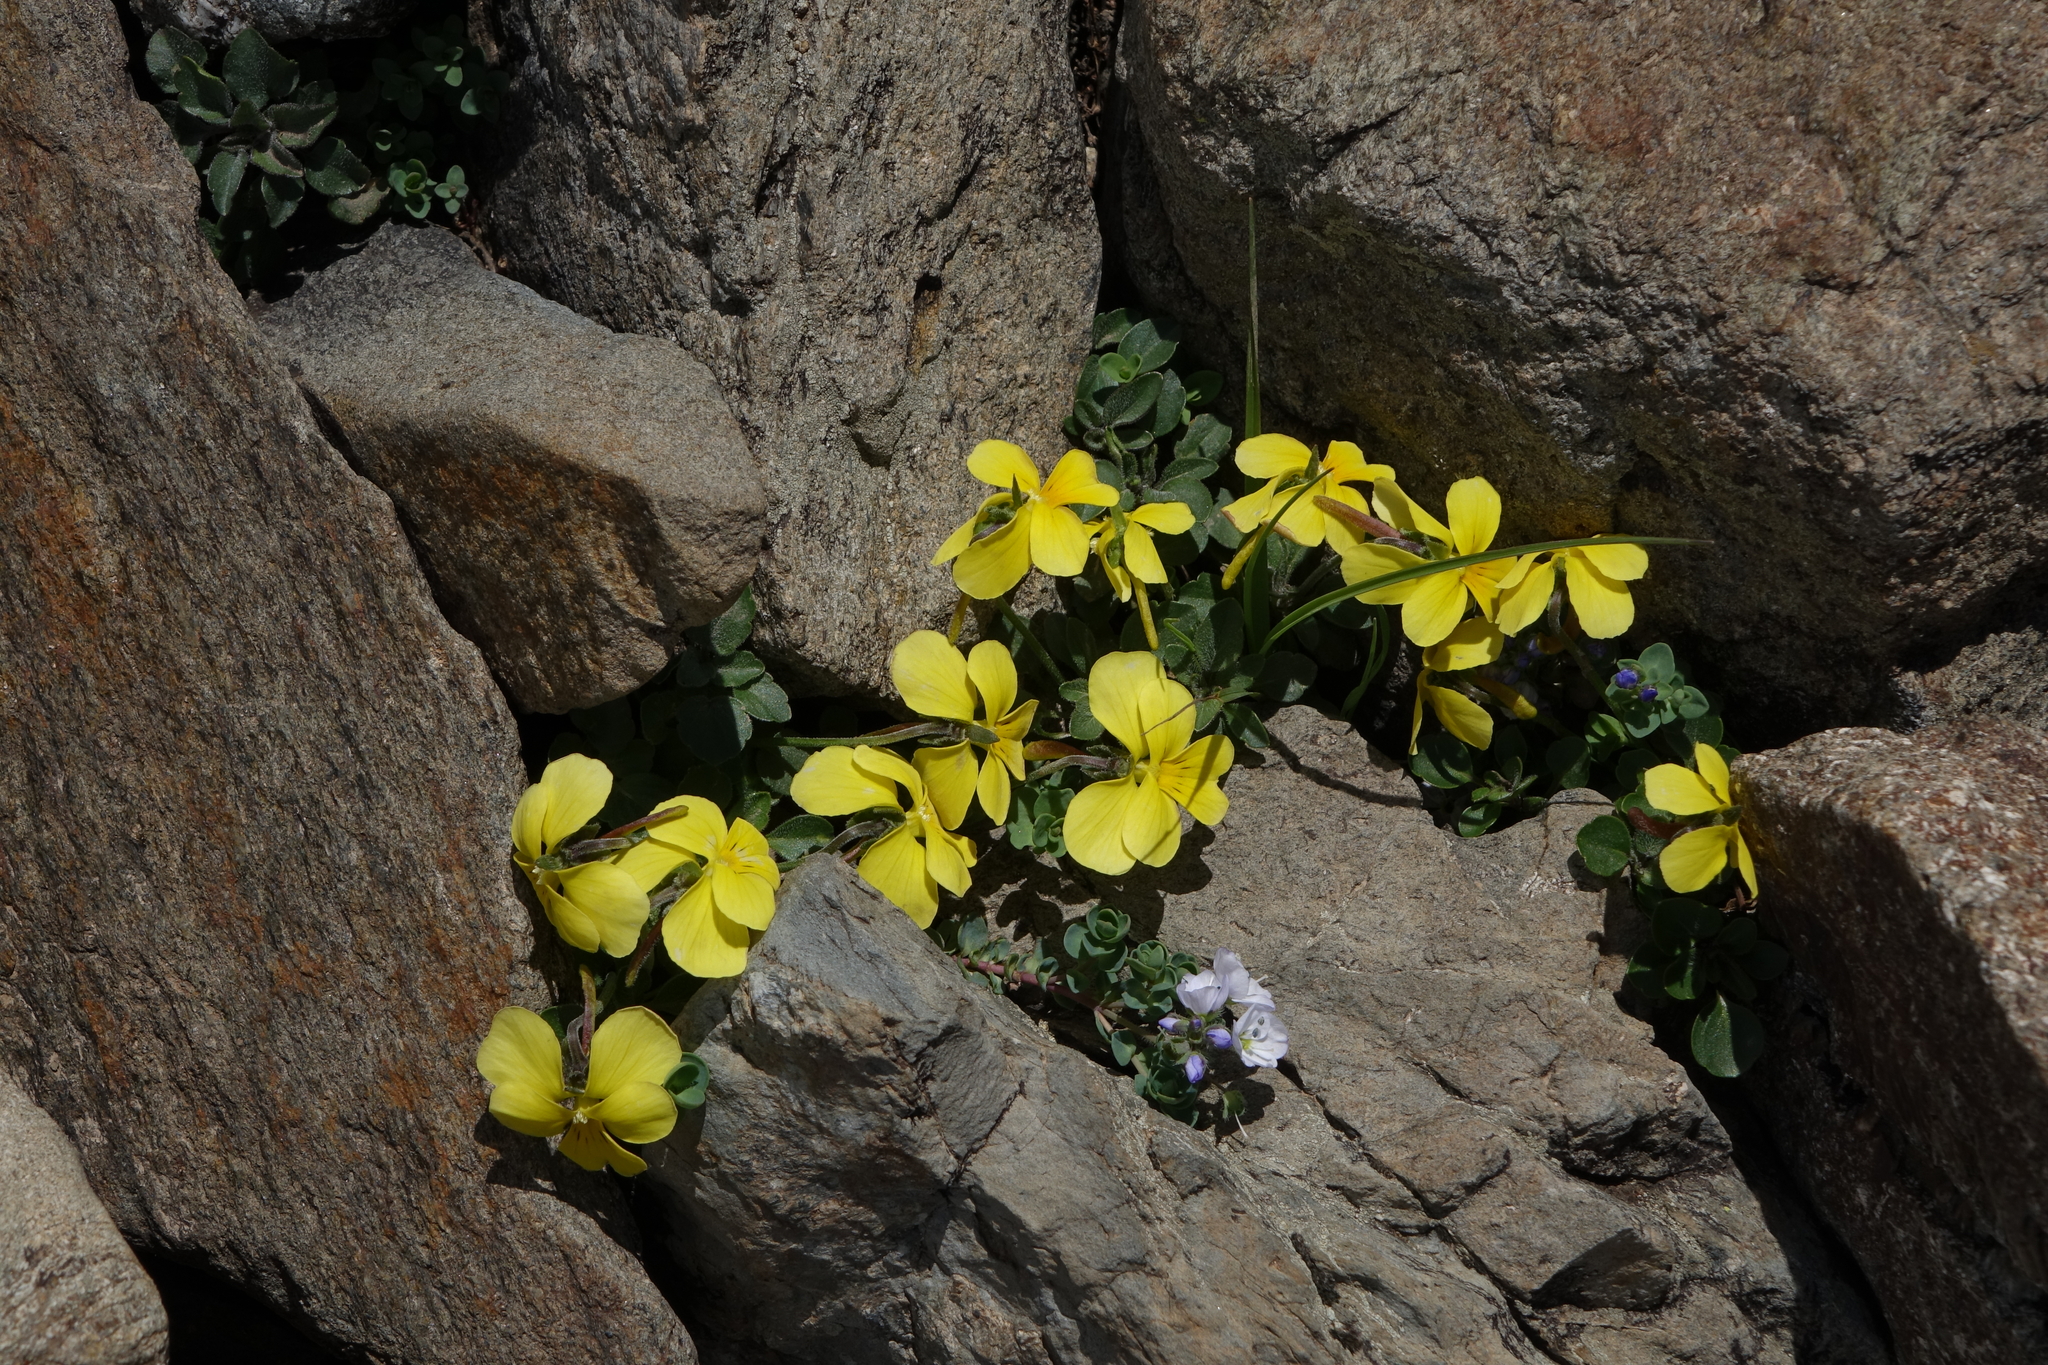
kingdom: Plantae
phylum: Tracheophyta
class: Magnoliopsida
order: Malpighiales
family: Violaceae
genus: Viola
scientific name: Viola minuta
